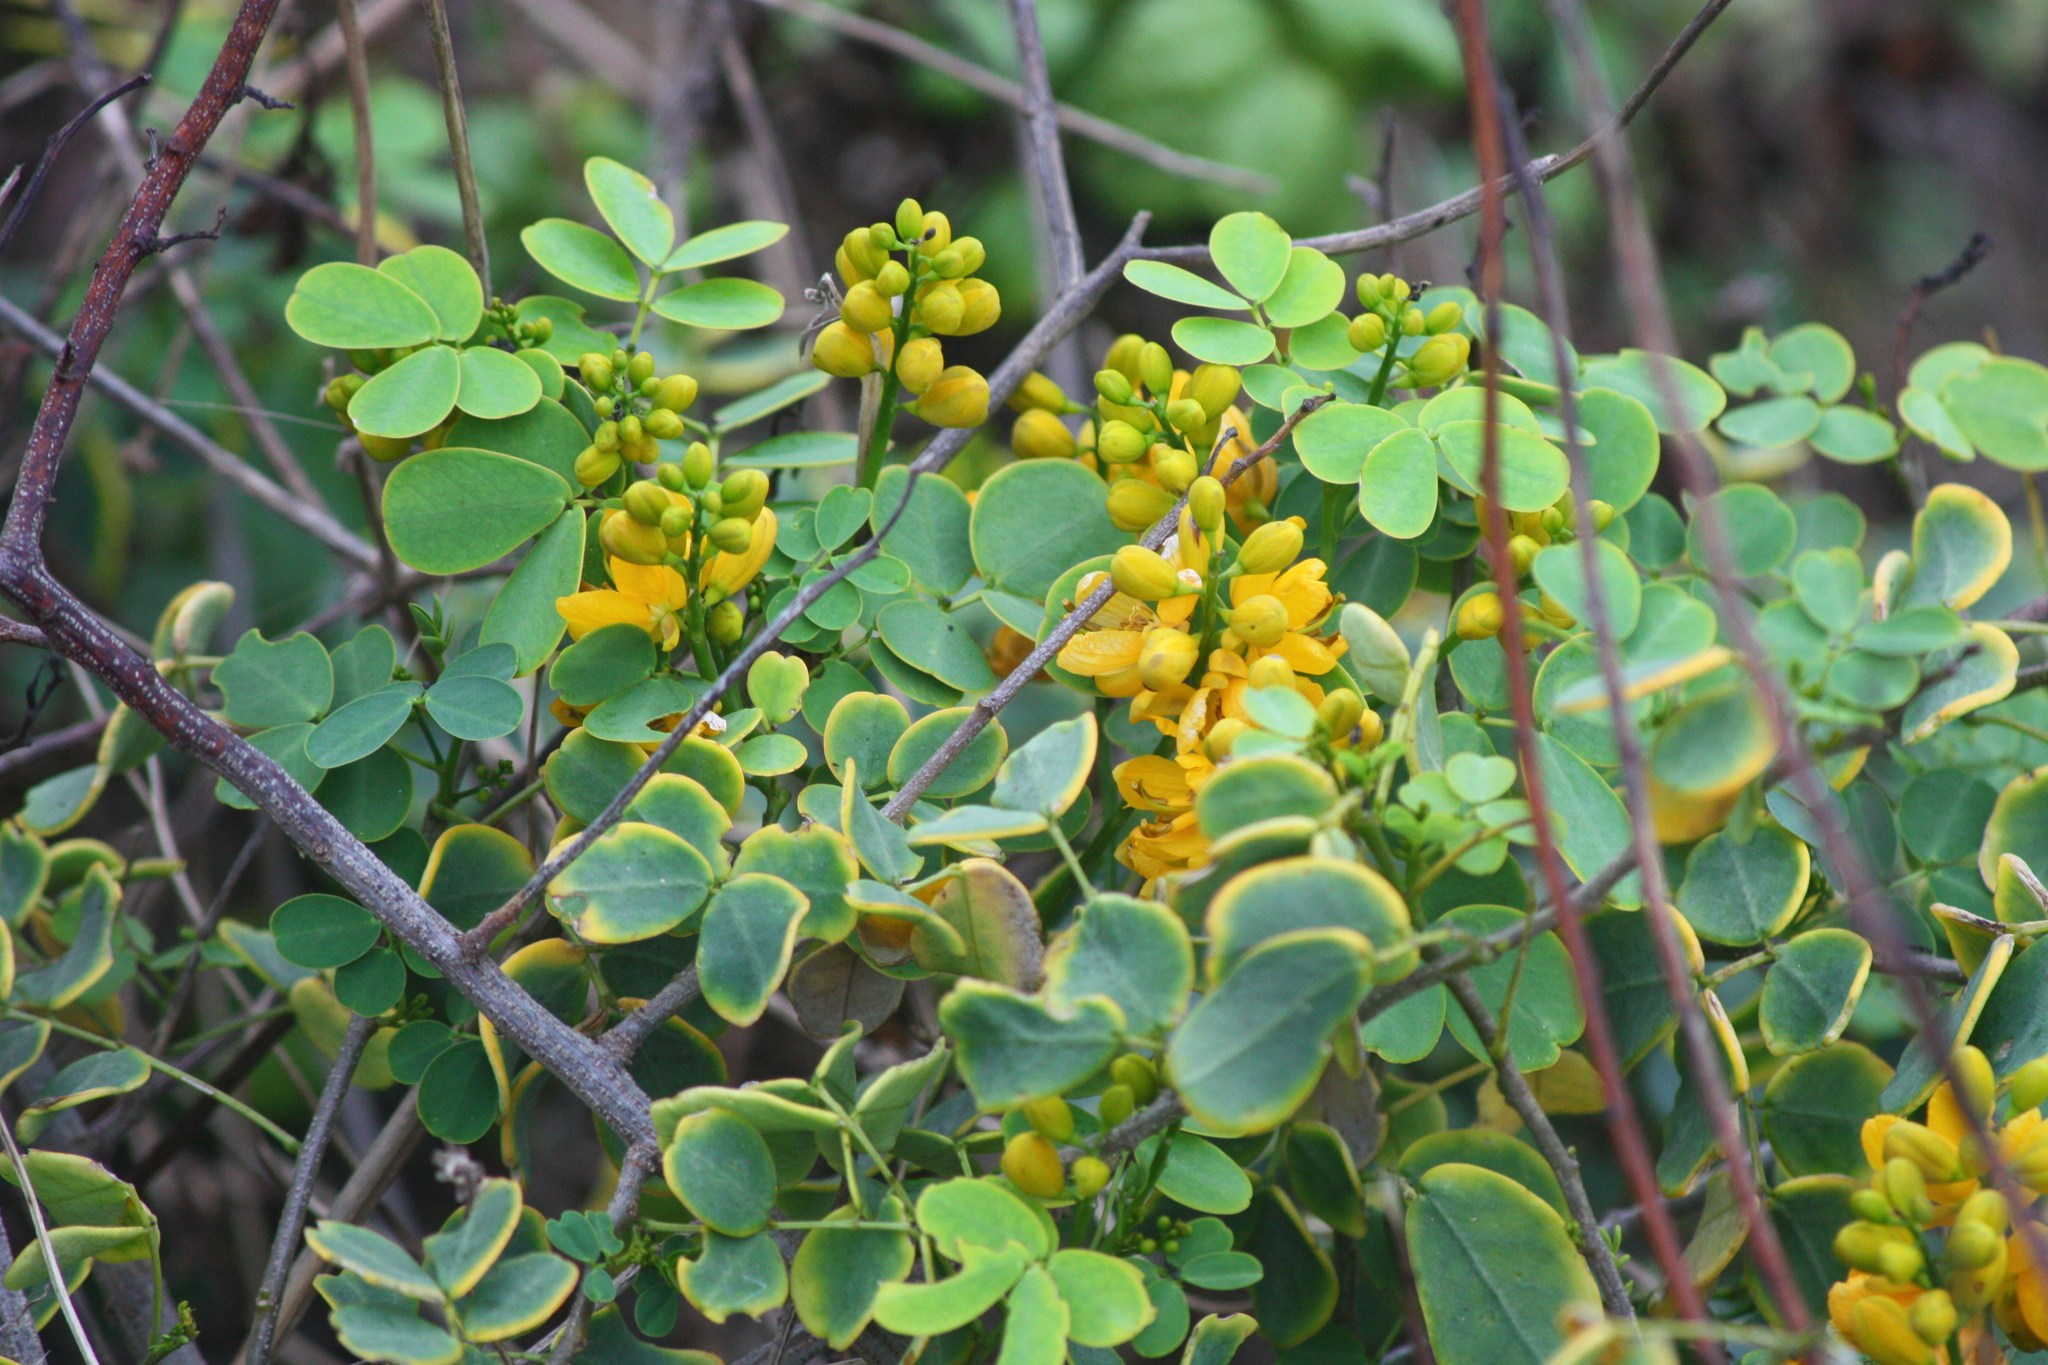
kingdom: Plantae
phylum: Tracheophyta
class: Magnoliopsida
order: Fabales
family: Fabaceae
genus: Senna
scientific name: Senna bicapsularis
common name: Christmasbush
